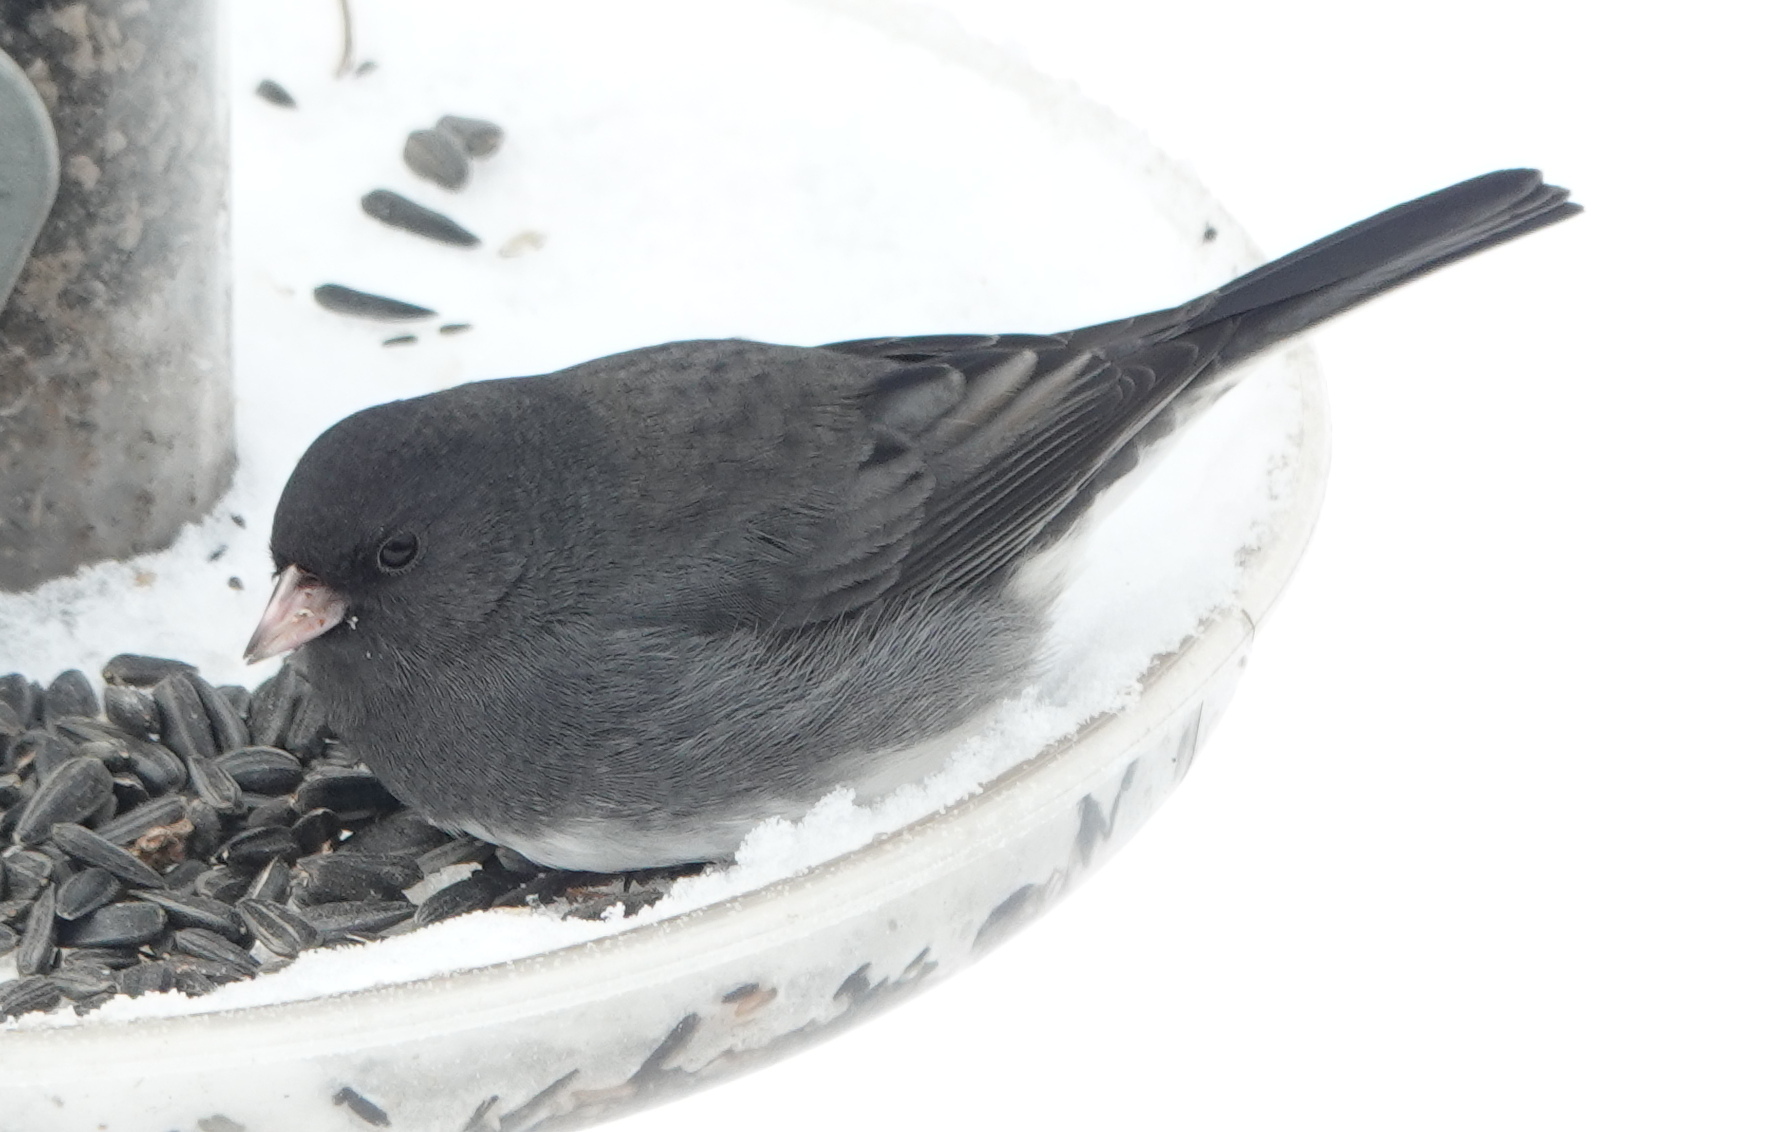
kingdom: Animalia
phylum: Chordata
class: Aves
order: Passeriformes
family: Passerellidae
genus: Junco
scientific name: Junco hyemalis
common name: Dark-eyed junco
